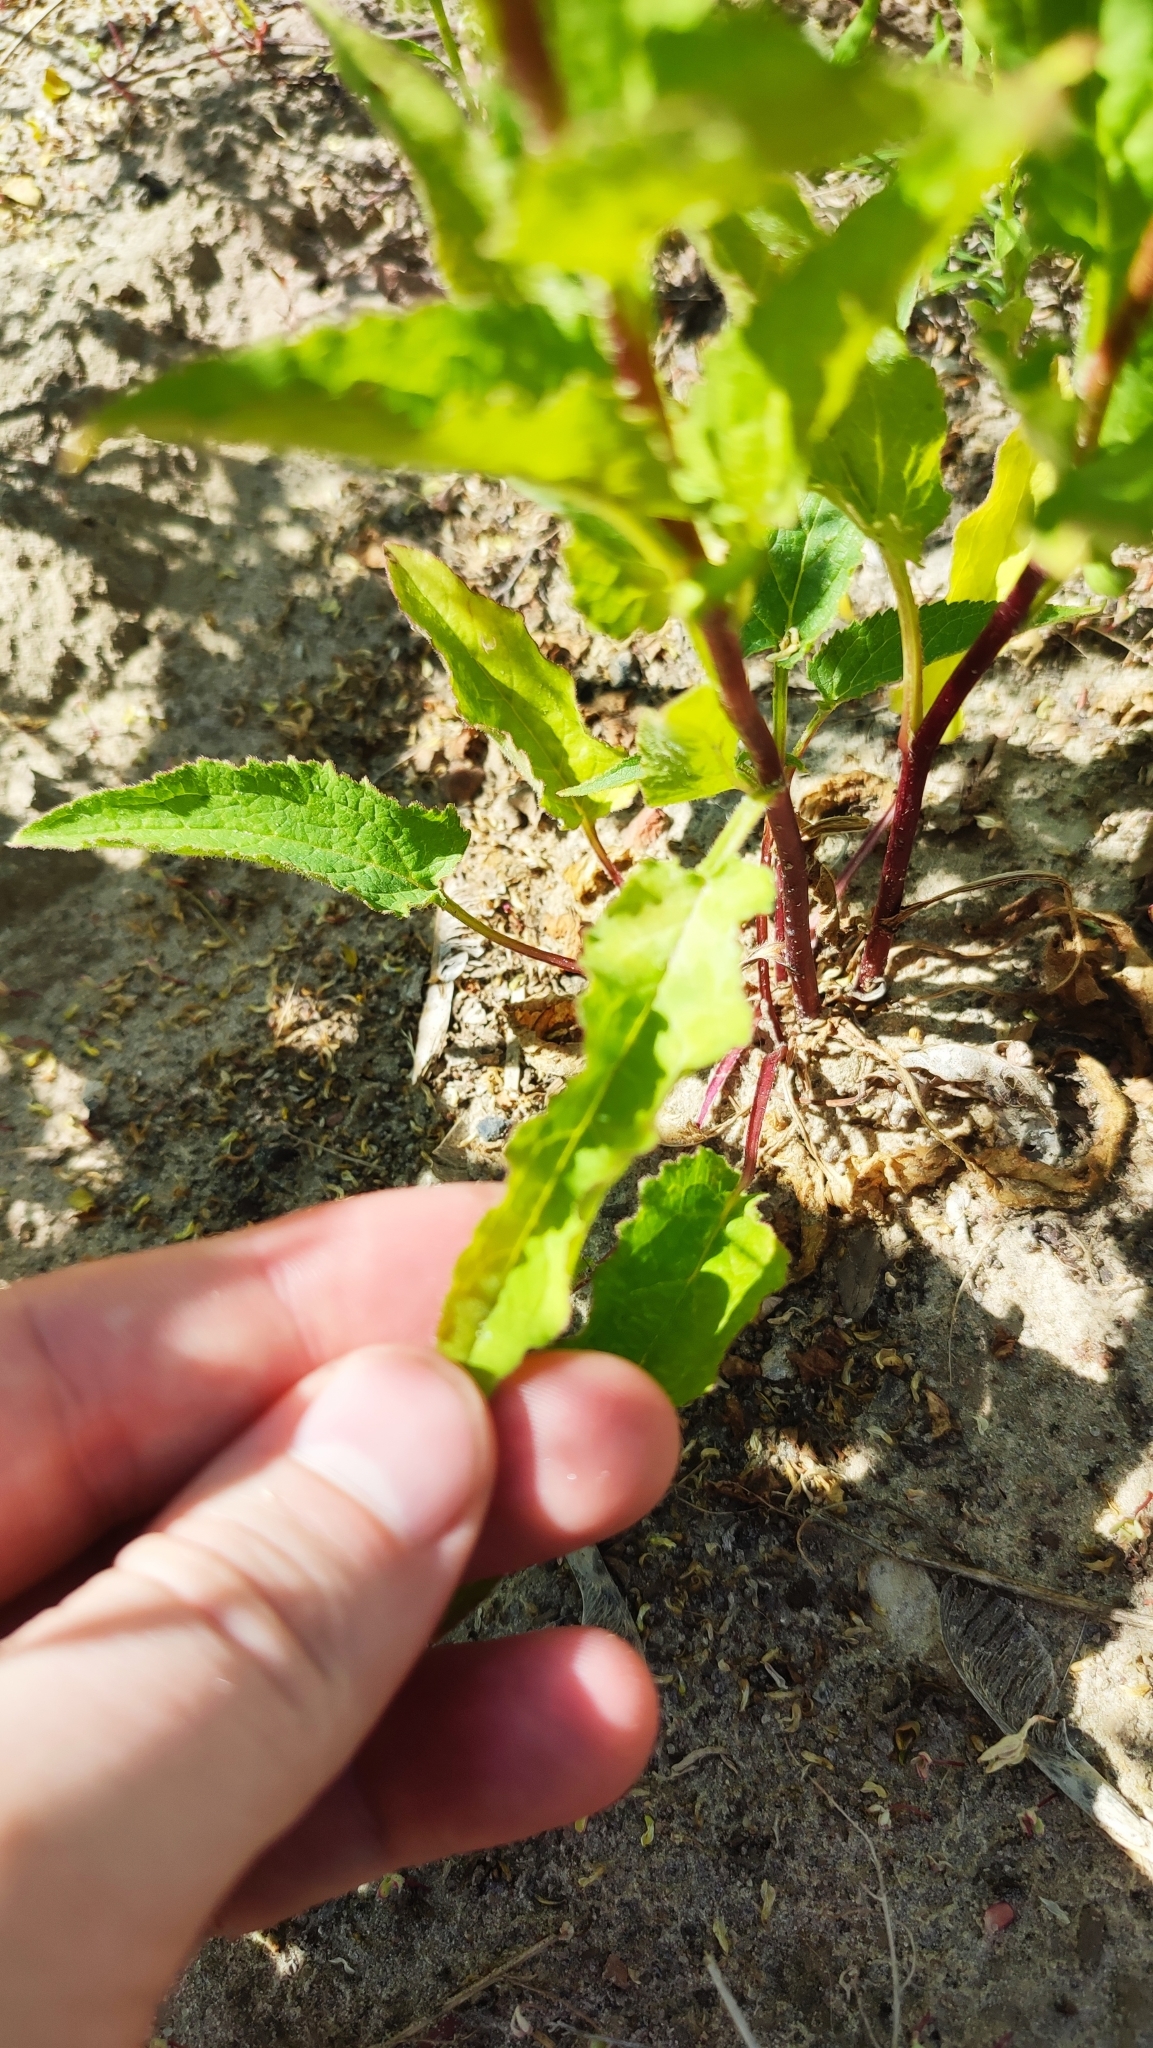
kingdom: Plantae
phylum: Tracheophyta
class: Magnoliopsida
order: Asterales
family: Campanulaceae
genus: Campanula
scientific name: Campanula rapunculoides
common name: Creeping bellflower
